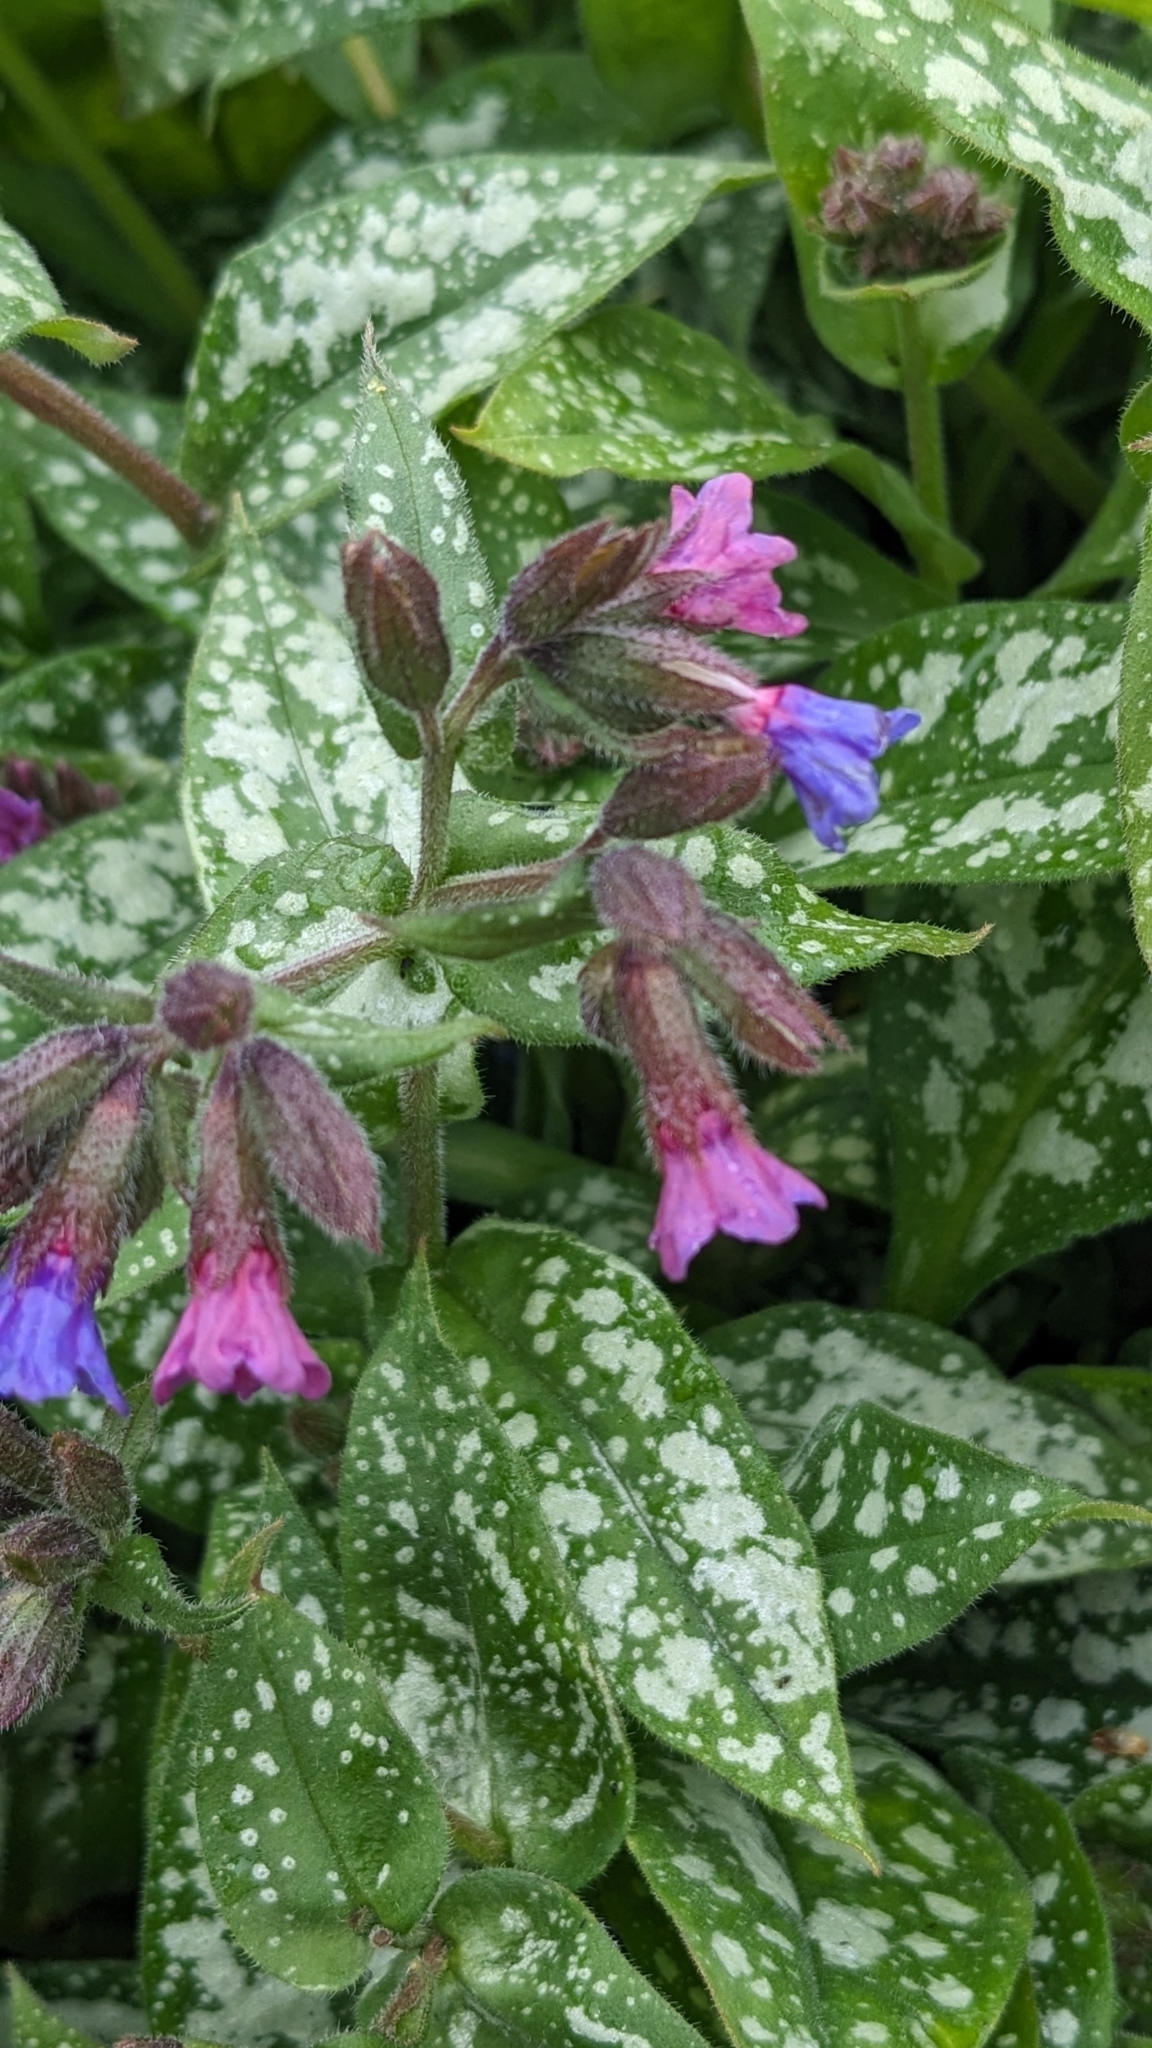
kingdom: Plantae
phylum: Tracheophyta
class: Magnoliopsida
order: Boraginales
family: Boraginaceae
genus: Pulmonaria
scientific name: Pulmonaria officinalis
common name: Lungwort
